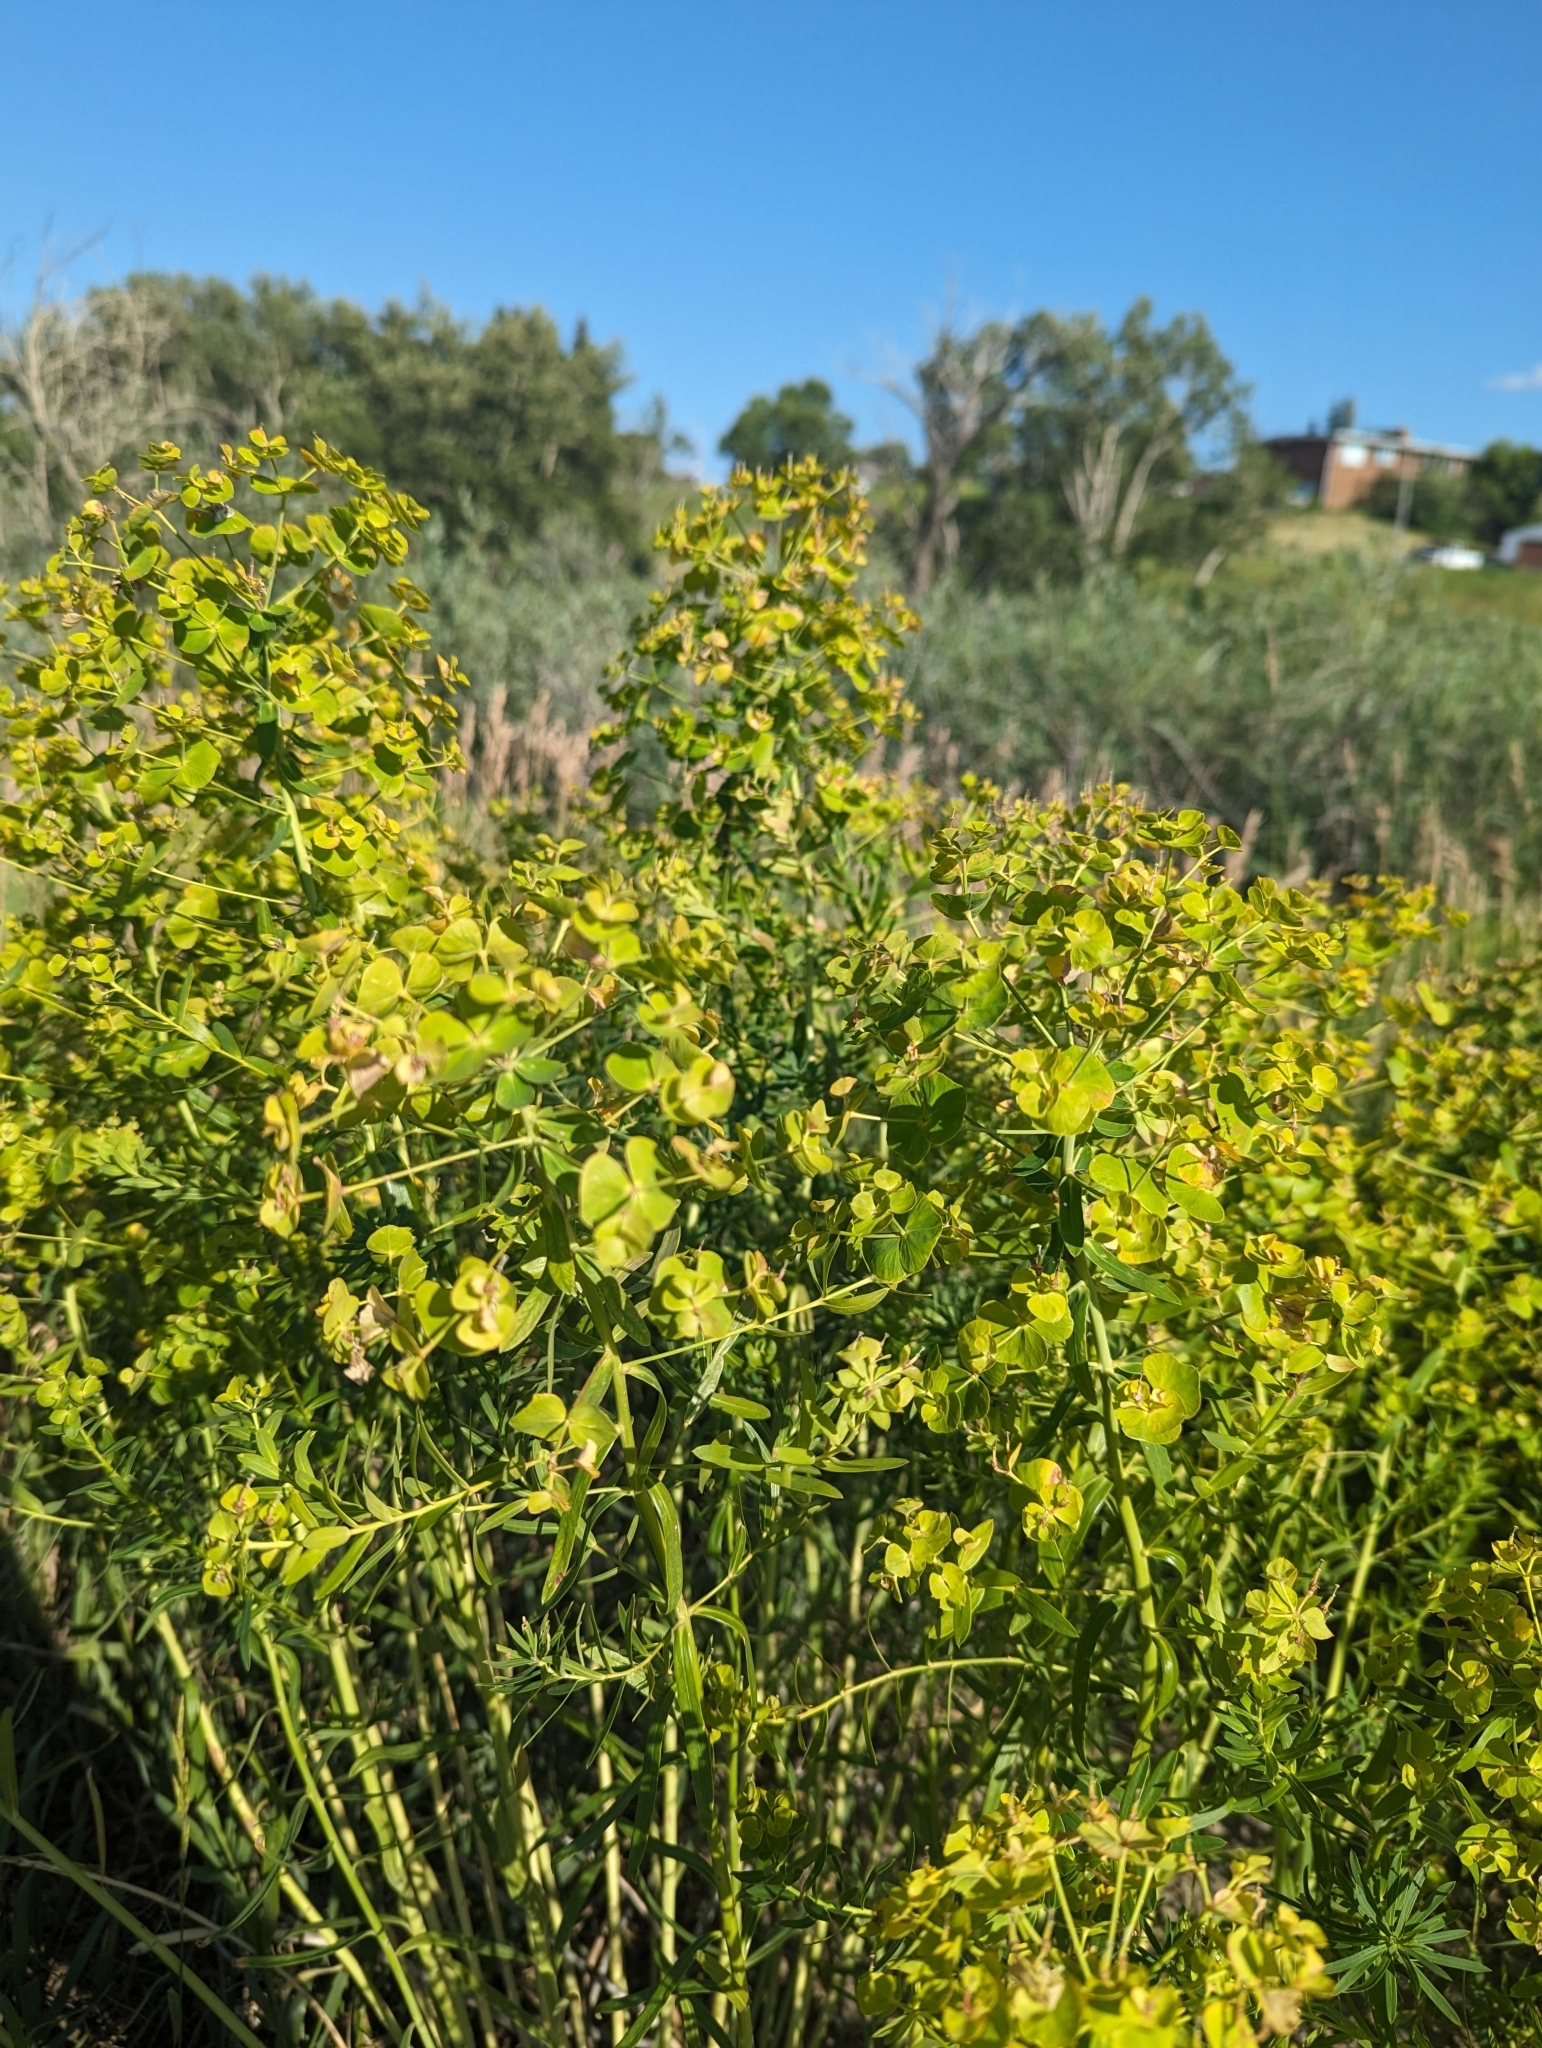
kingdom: Plantae
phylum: Tracheophyta
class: Magnoliopsida
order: Malpighiales
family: Euphorbiaceae
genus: Euphorbia
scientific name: Euphorbia virgata
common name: Leafy spurge
